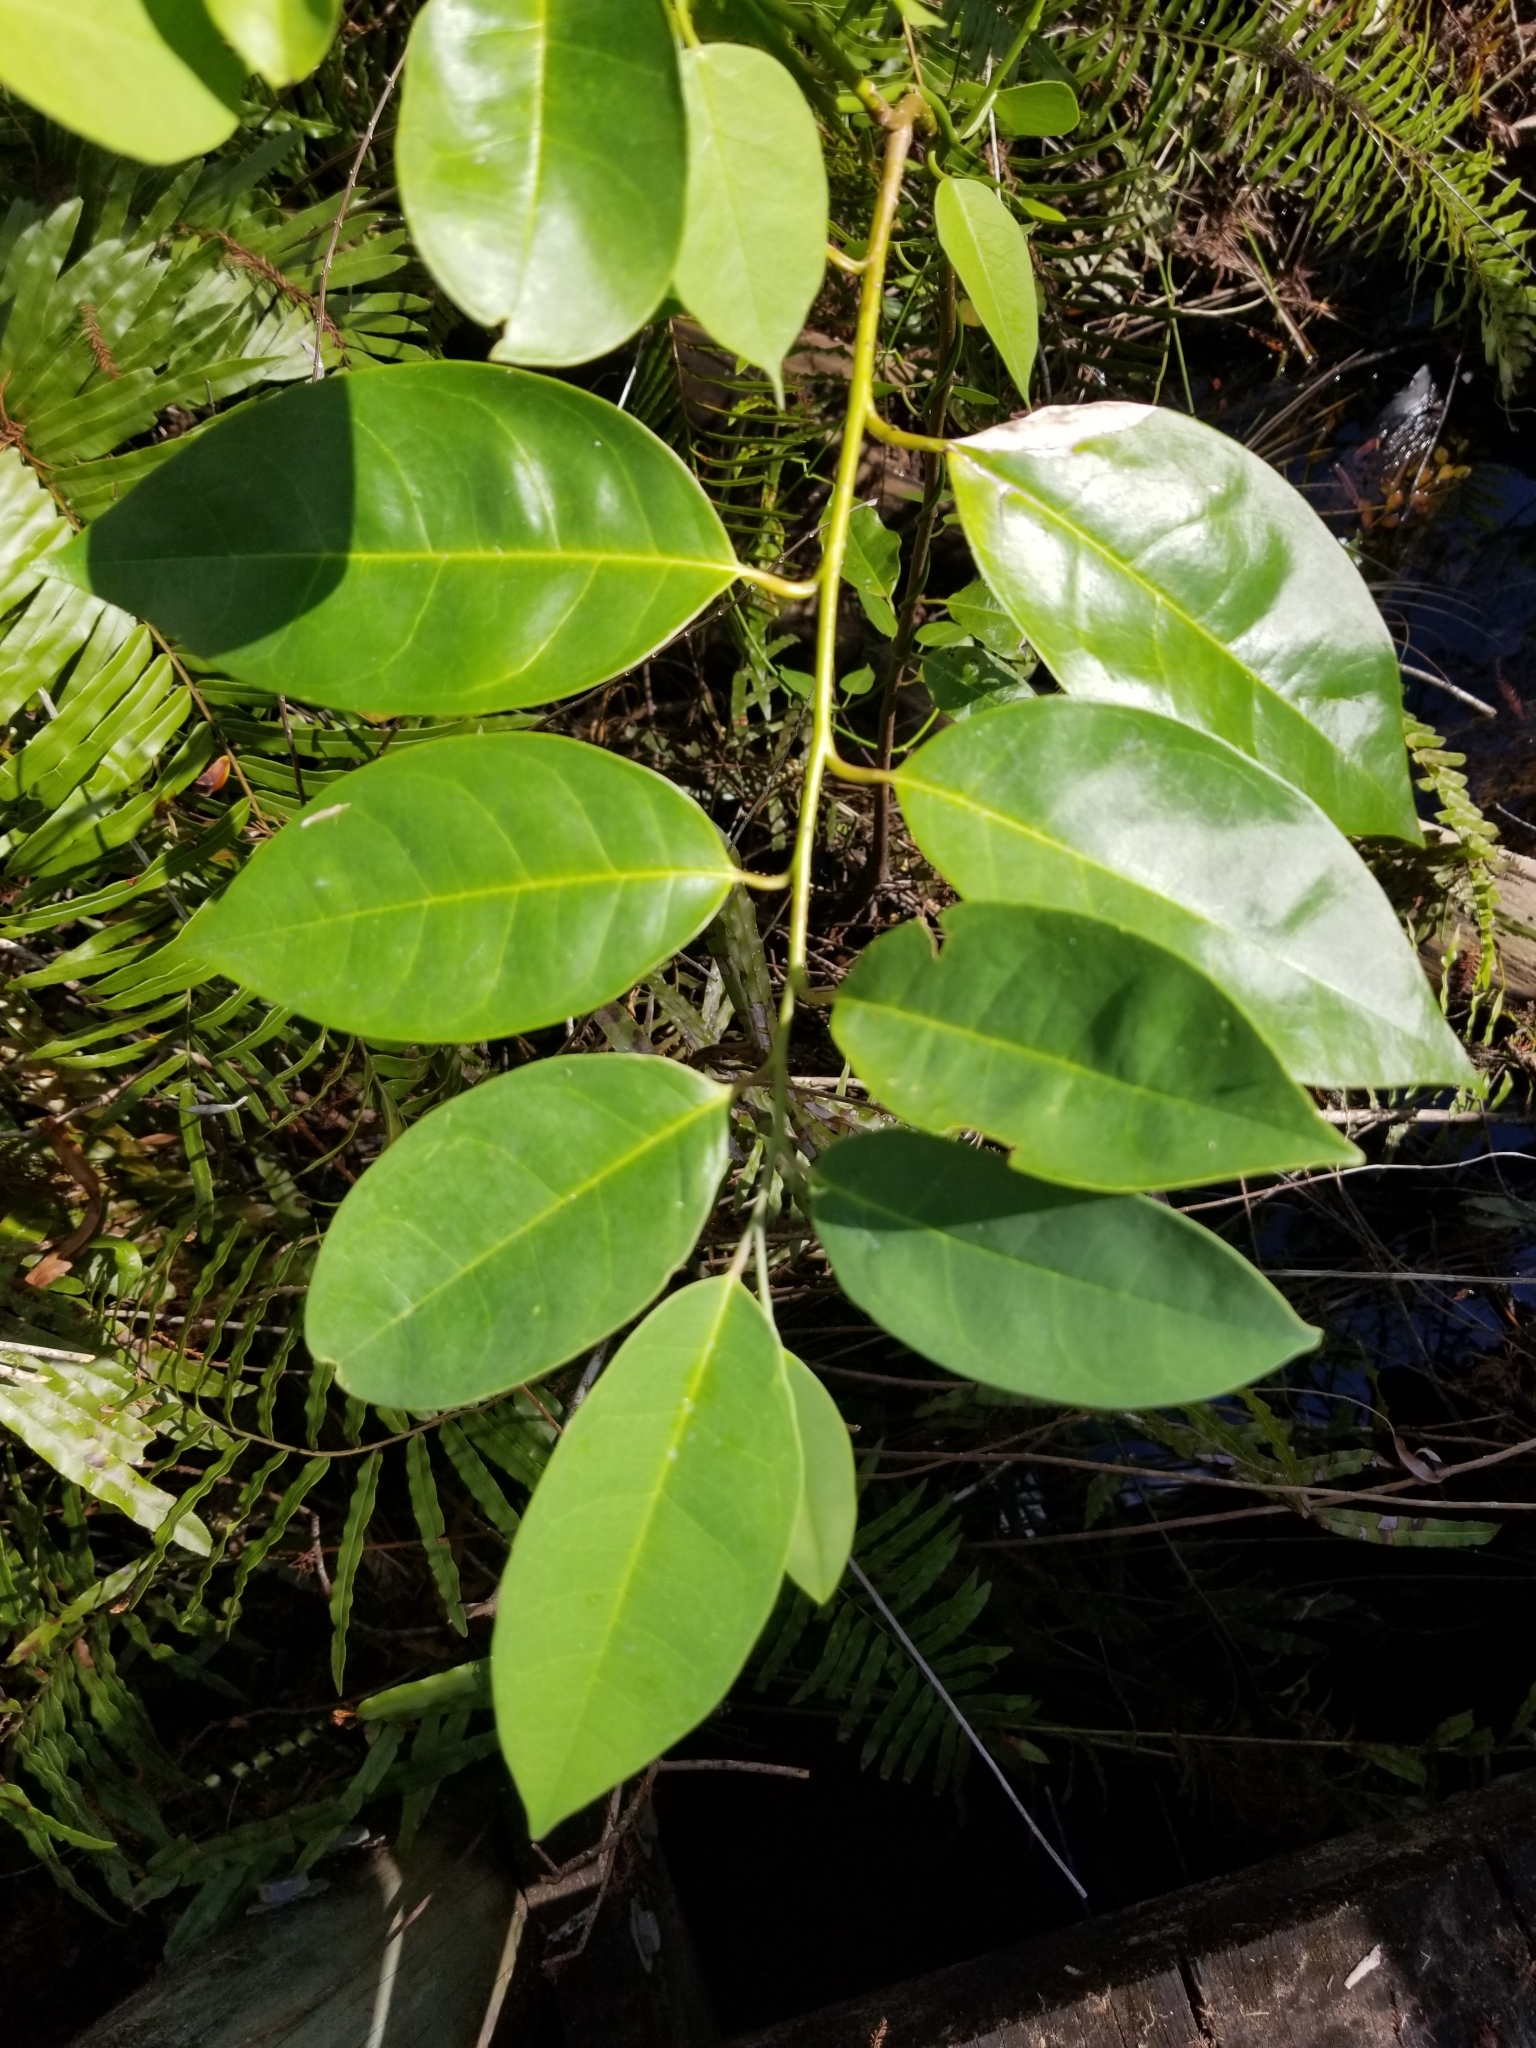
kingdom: Plantae
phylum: Tracheophyta
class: Magnoliopsida
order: Magnoliales
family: Annonaceae
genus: Annona
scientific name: Annona glabra
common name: Monkey apple
